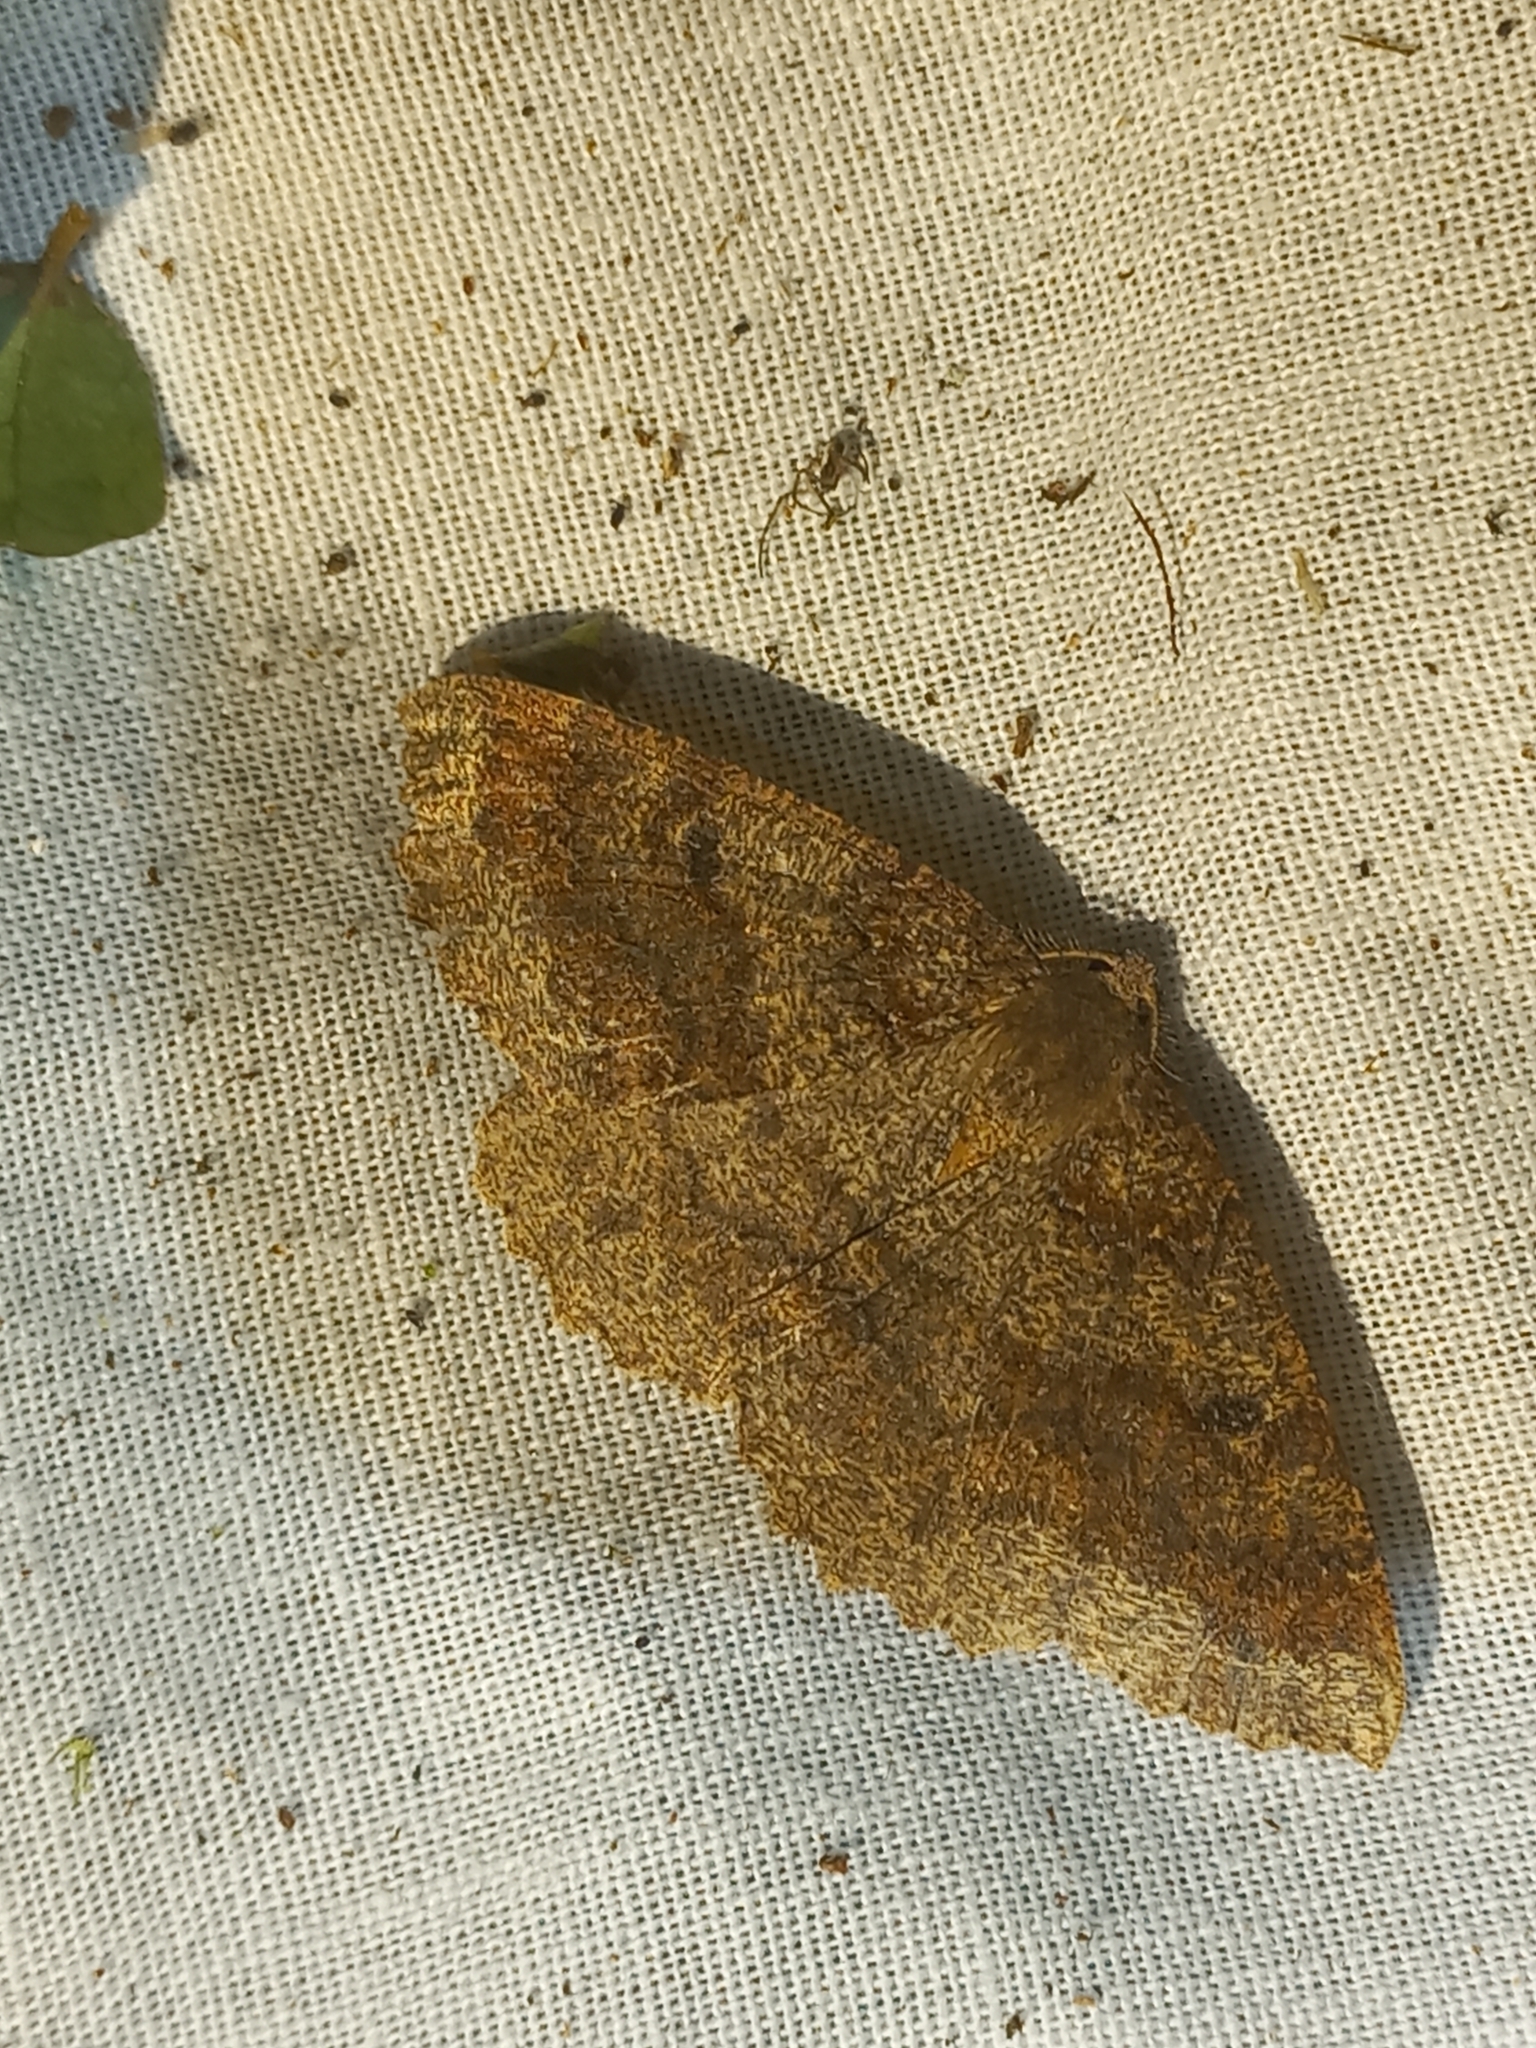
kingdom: Animalia
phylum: Arthropoda
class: Insecta
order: Lepidoptera
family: Geometridae
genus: Cleora
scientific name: Cleora scriptaria
